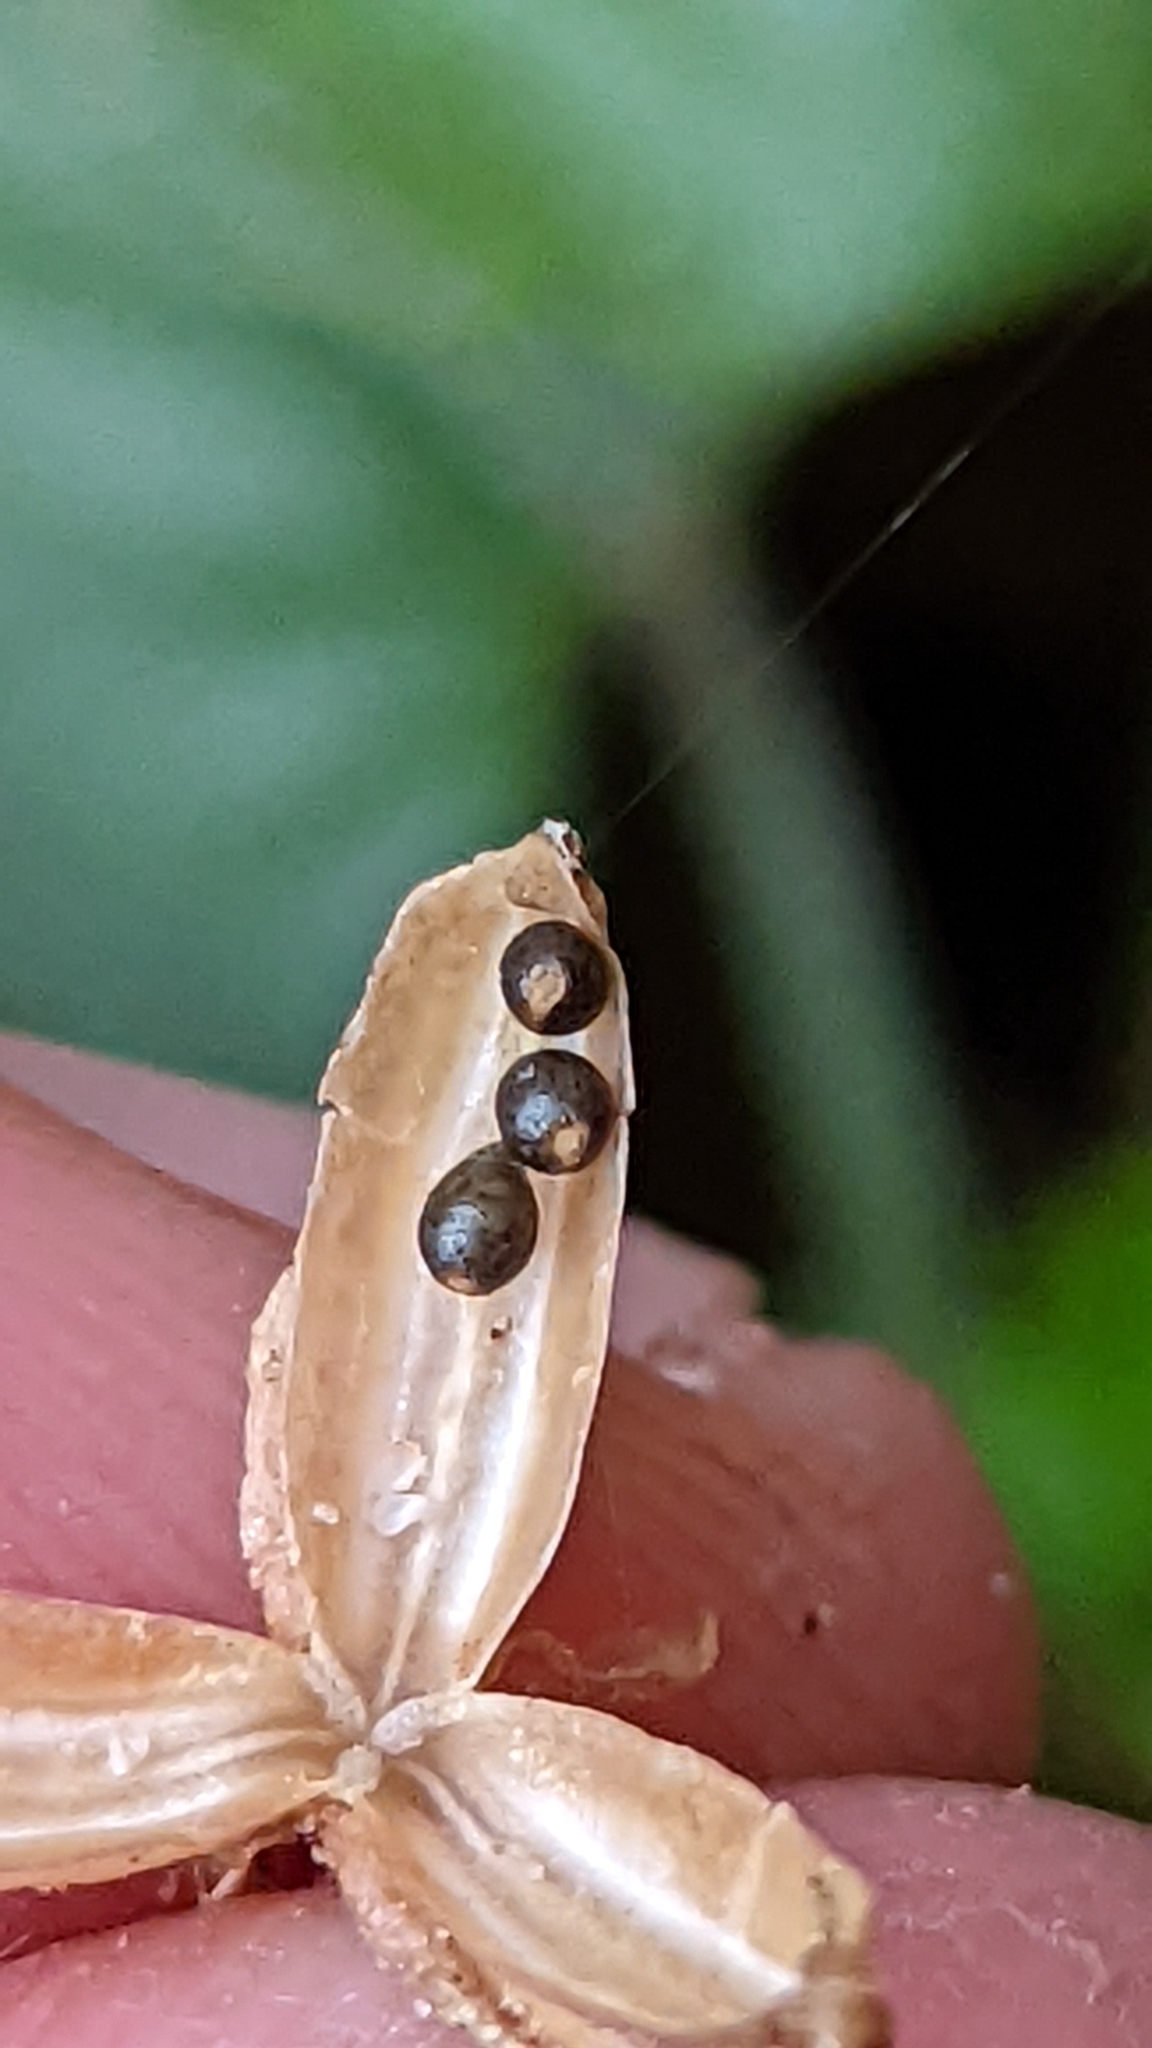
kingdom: Plantae
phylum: Tracheophyta
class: Magnoliopsida
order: Malpighiales
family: Violaceae
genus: Viola
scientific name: Viola clauseniana
